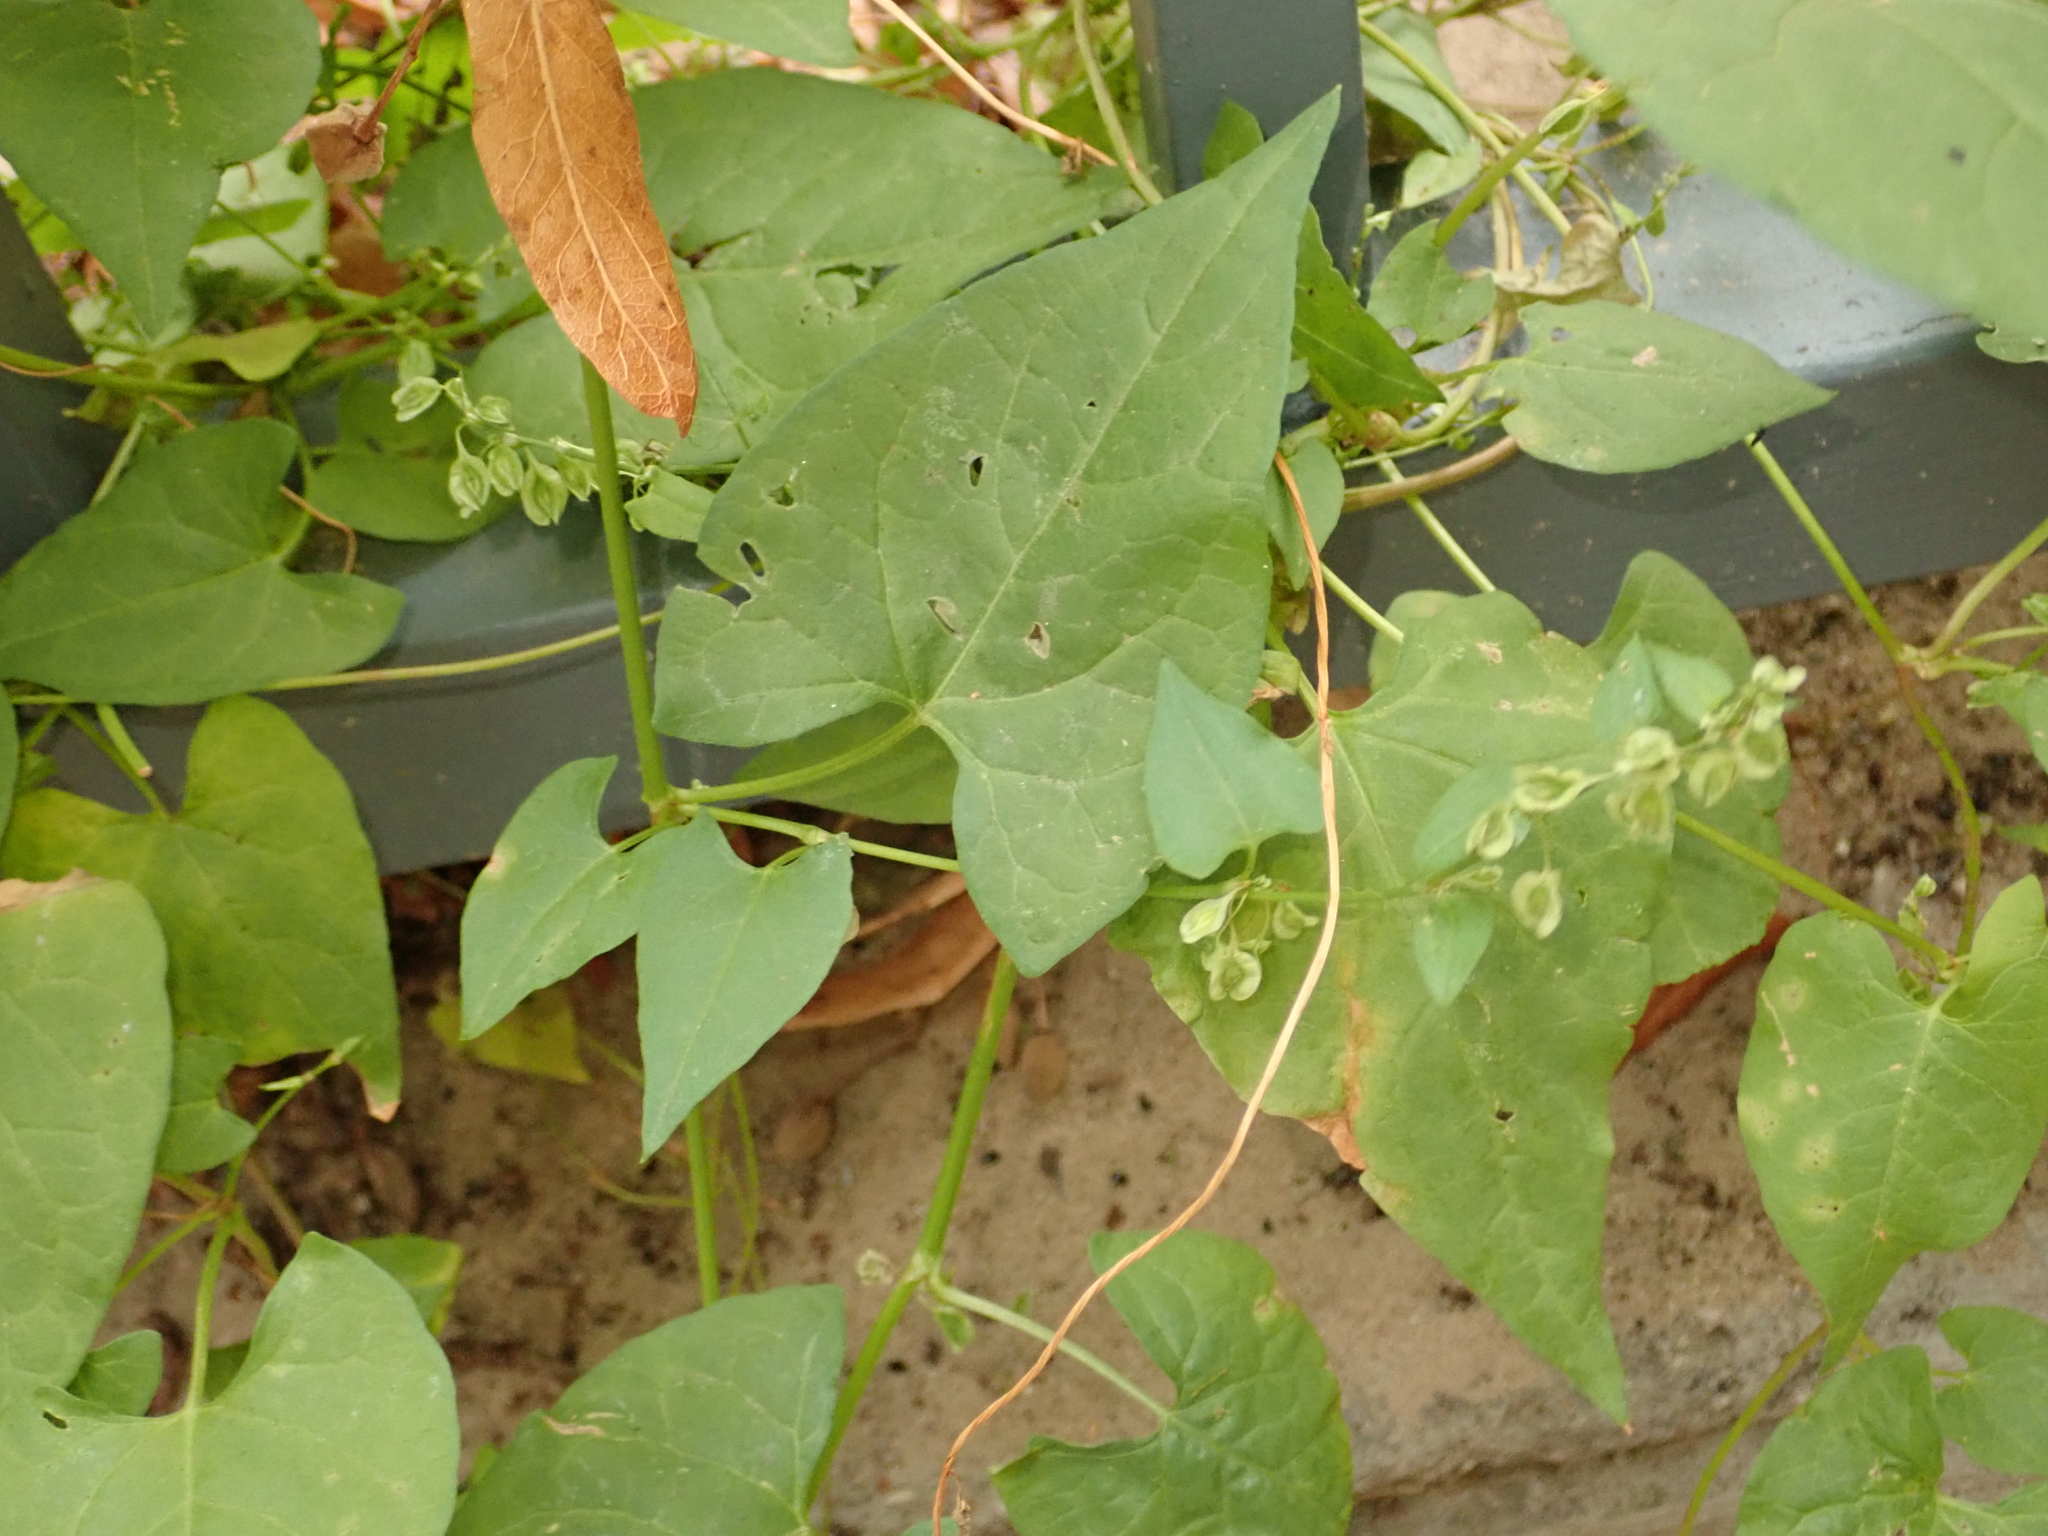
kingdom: Plantae
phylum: Tracheophyta
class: Magnoliopsida
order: Caryophyllales
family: Polygonaceae
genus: Fallopia
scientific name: Fallopia dumetorum
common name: Copse-bindweed
